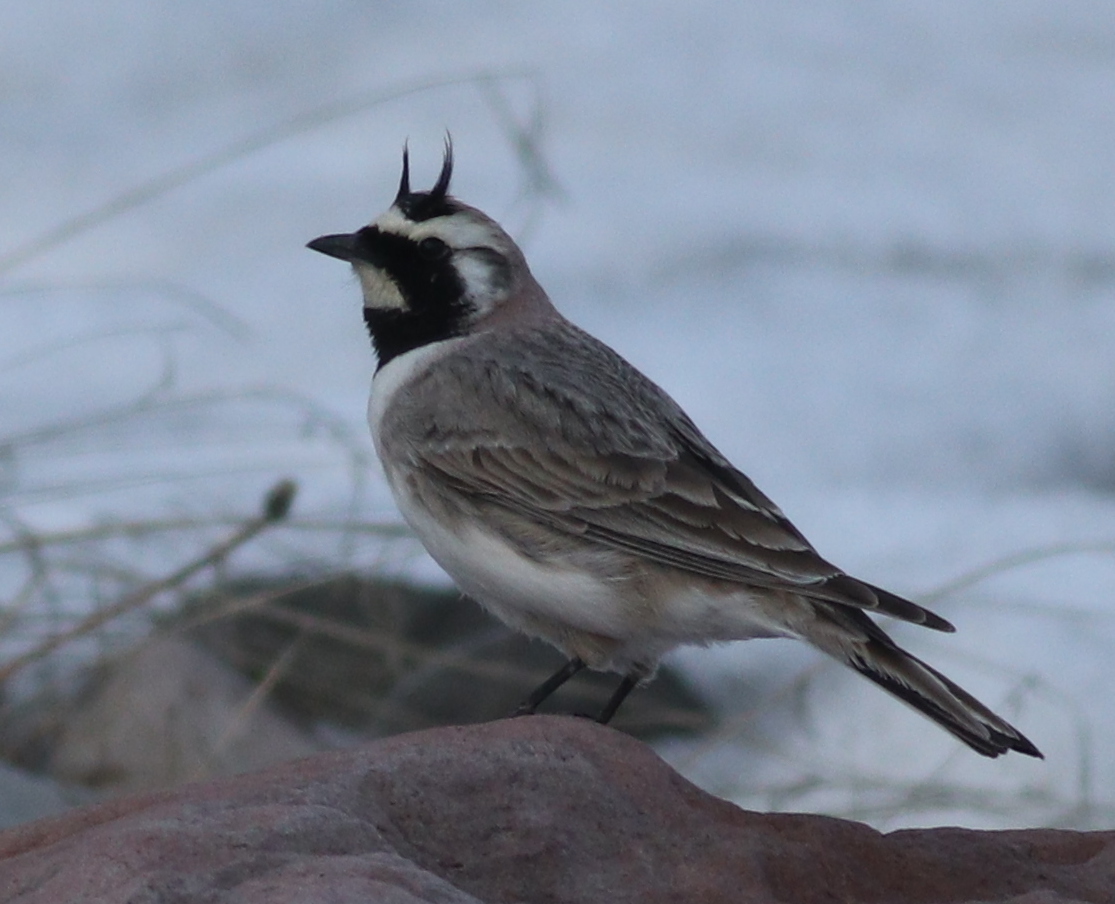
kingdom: Animalia
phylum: Chordata
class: Aves
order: Passeriformes
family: Alaudidae
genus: Eremophila
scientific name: Eremophila alpestris
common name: Horned lark
